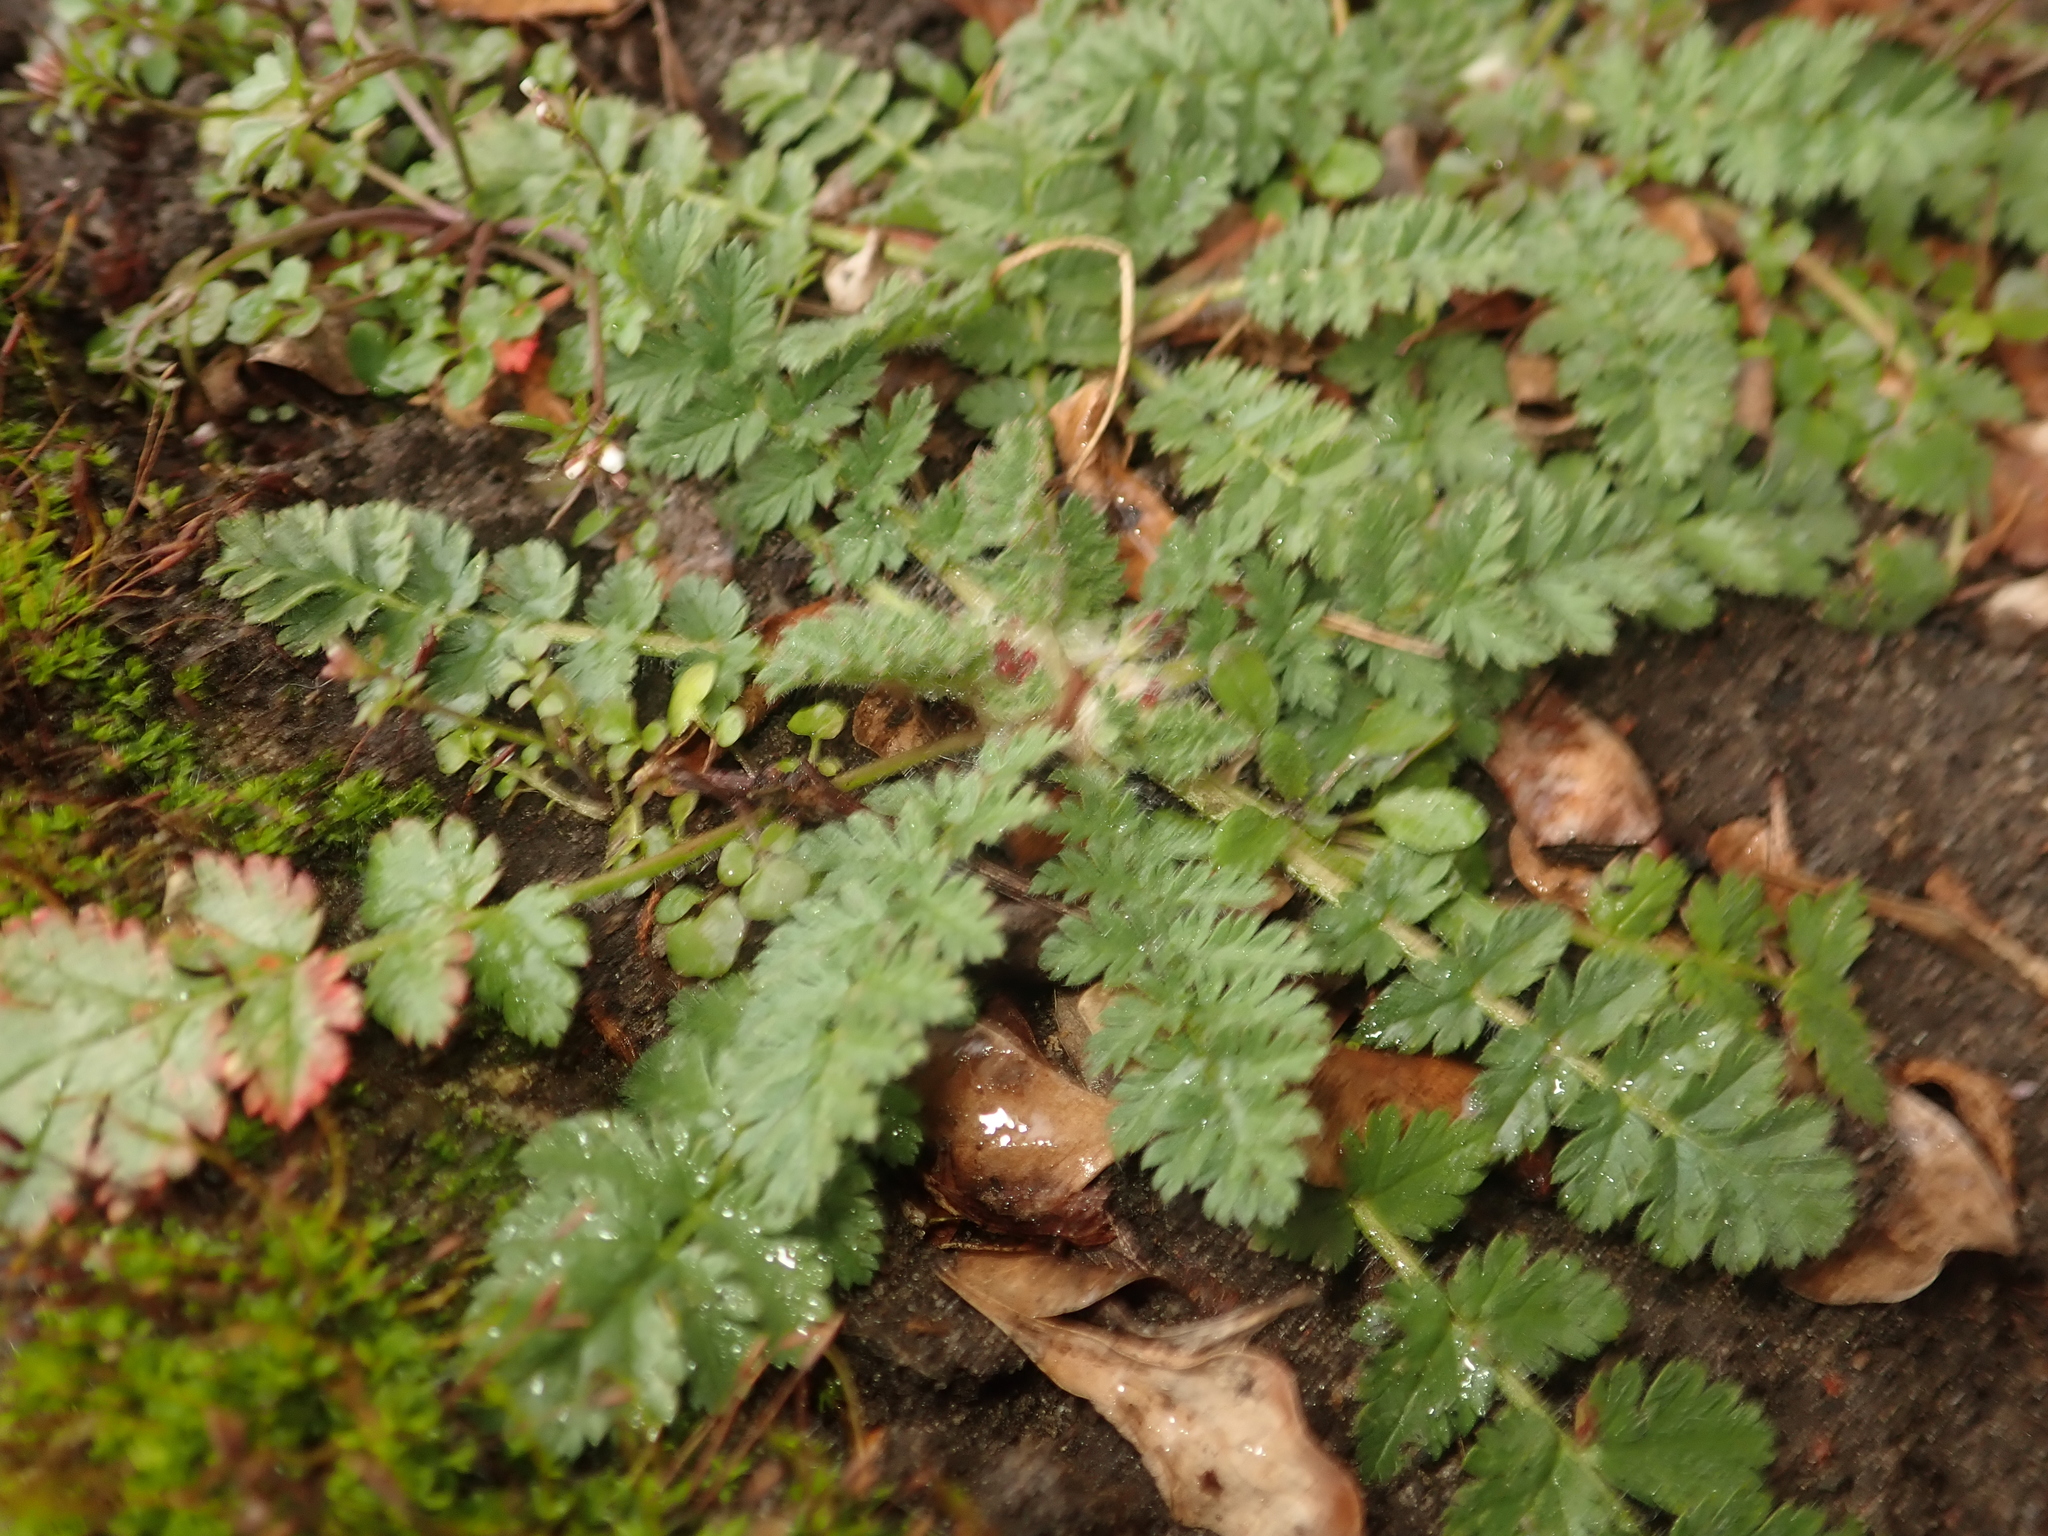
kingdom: Plantae
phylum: Tracheophyta
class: Magnoliopsida
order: Geraniales
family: Geraniaceae
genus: Erodium
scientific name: Erodium cicutarium
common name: Common stork's-bill
